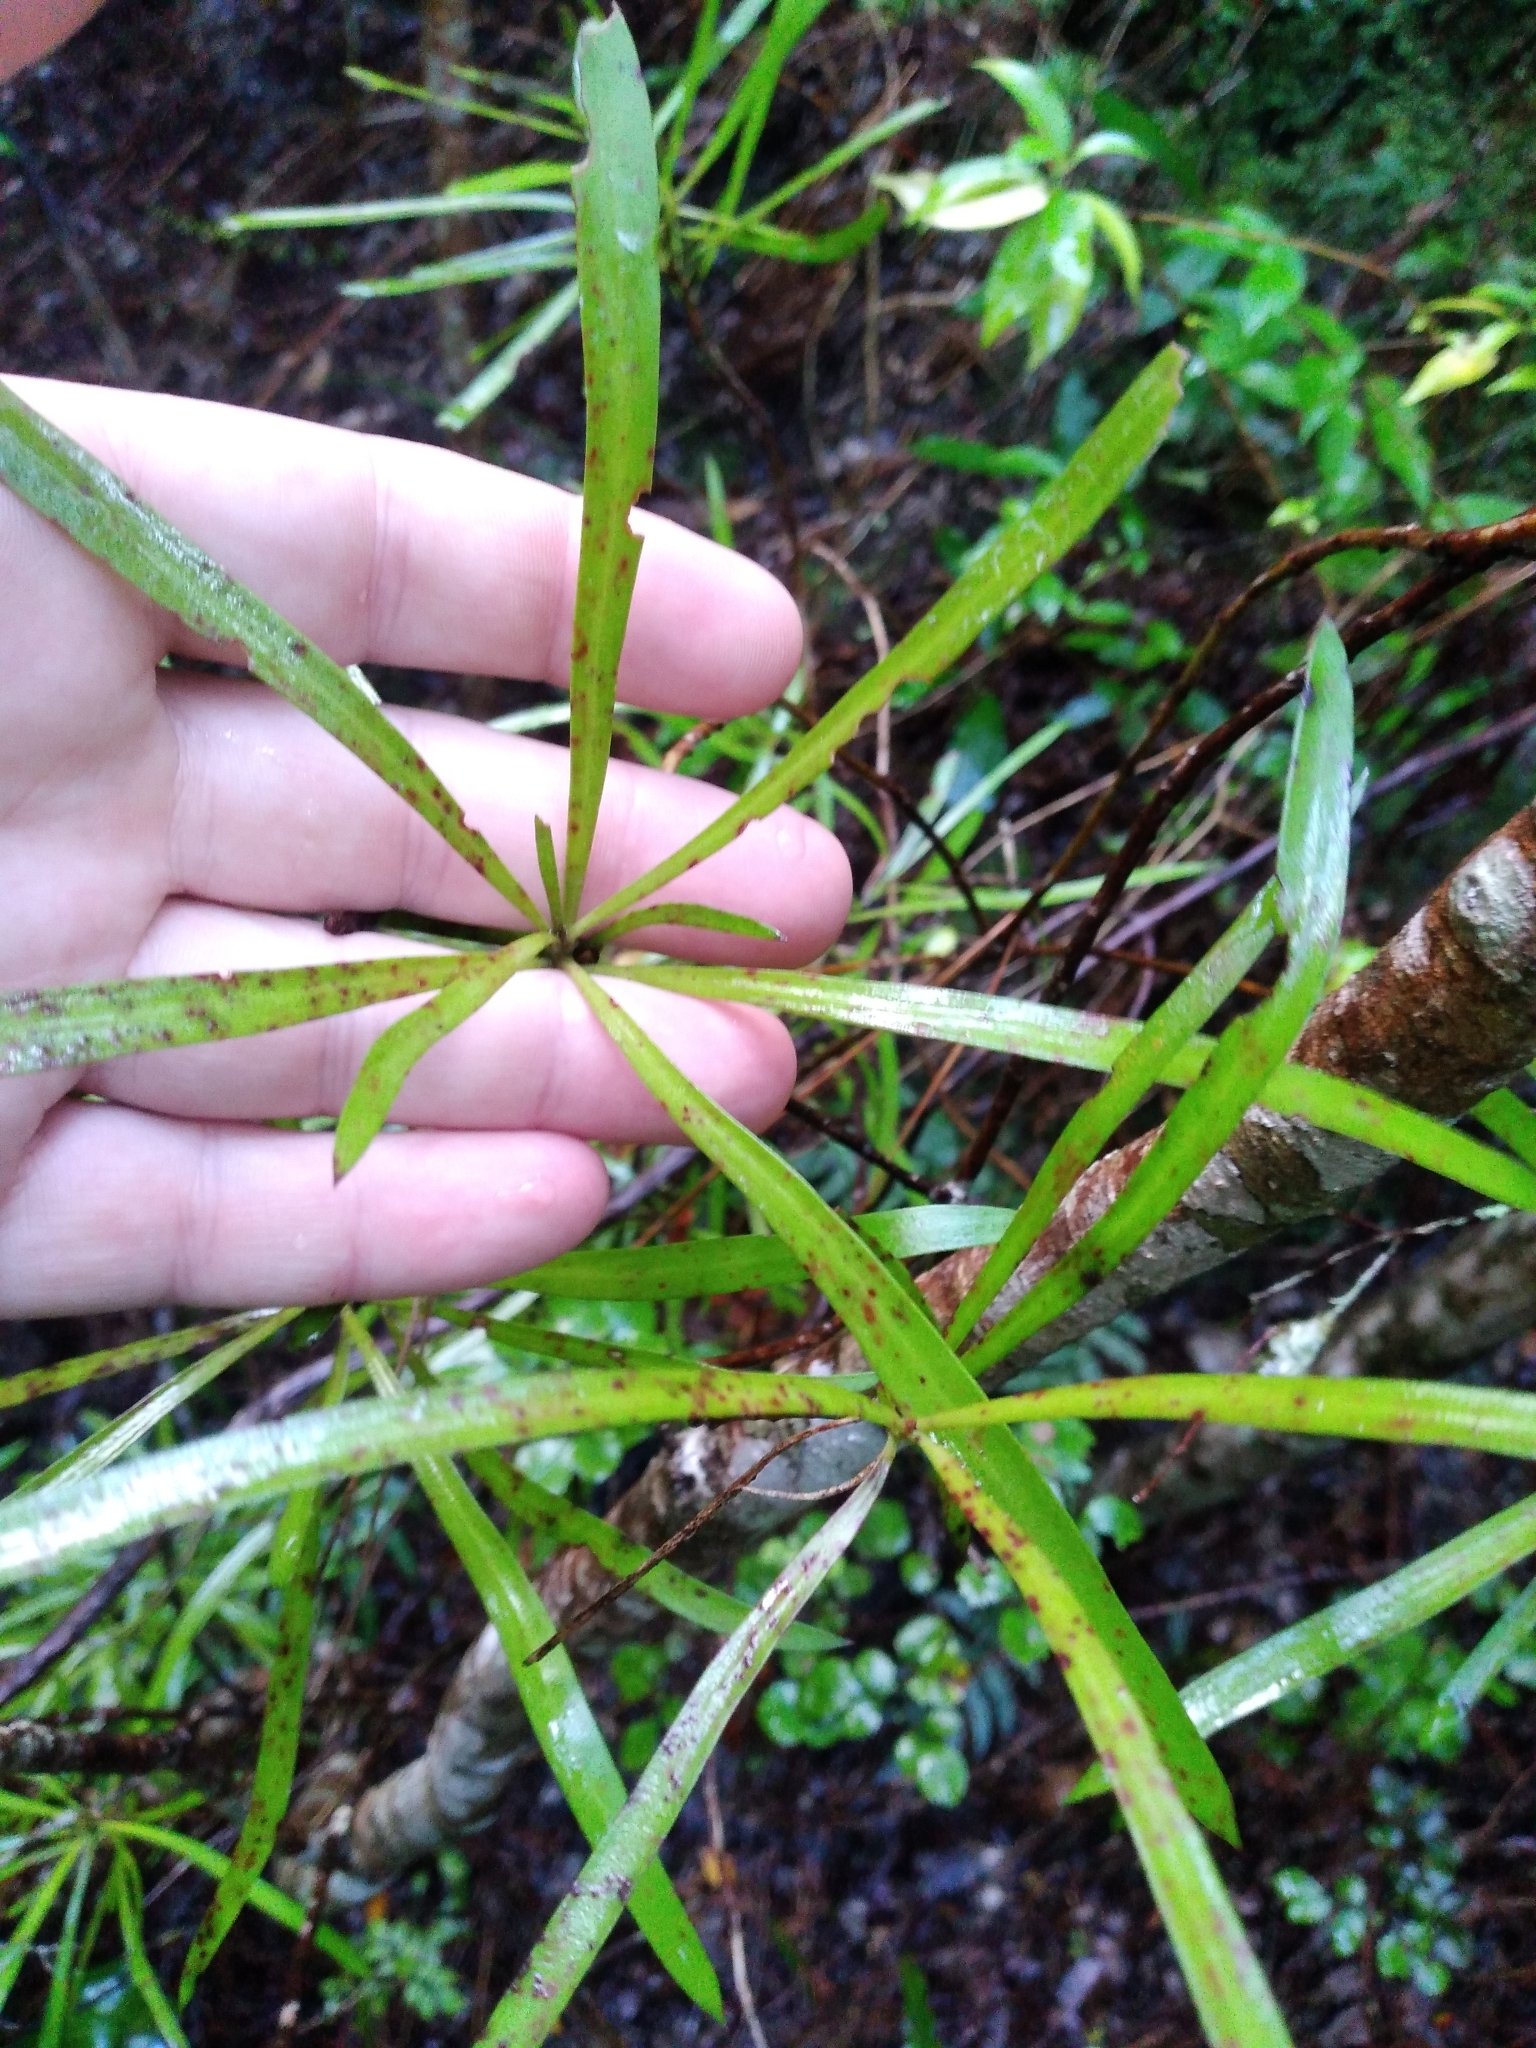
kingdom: Plantae
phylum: Tracheophyta
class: Magnoliopsida
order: Proteales
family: Proteaceae
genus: Toronia
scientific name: Toronia toru
